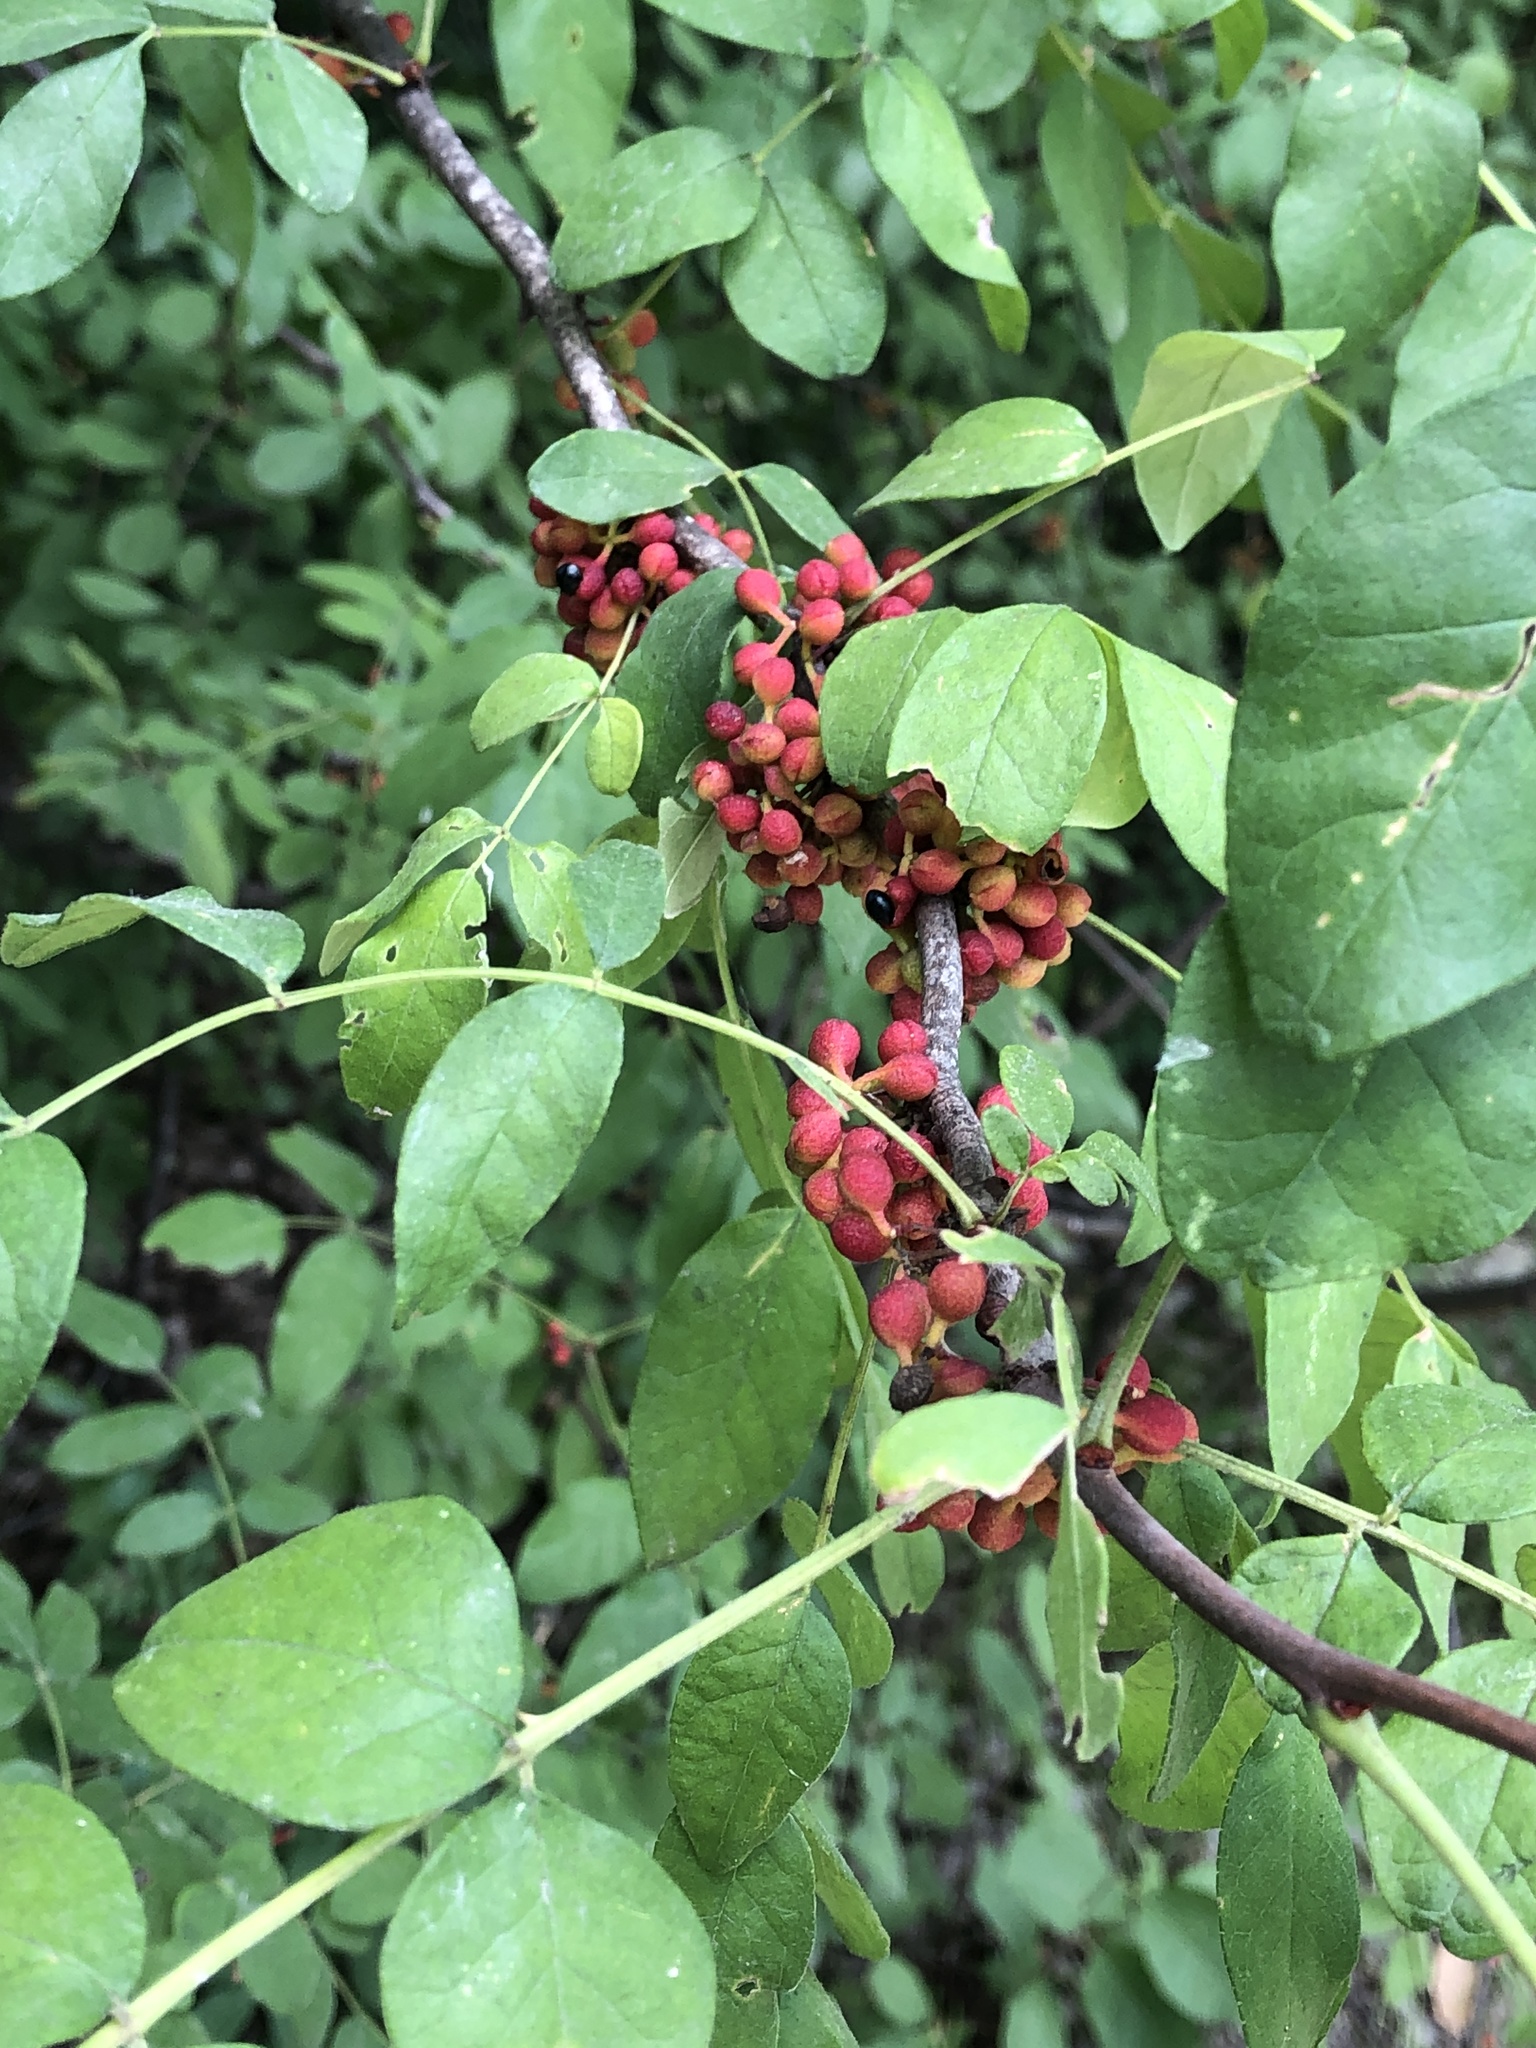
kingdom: Plantae
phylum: Tracheophyta
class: Magnoliopsida
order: Sapindales
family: Rutaceae
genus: Zanthoxylum
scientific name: Zanthoxylum americanum
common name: Northern prickly-ash
